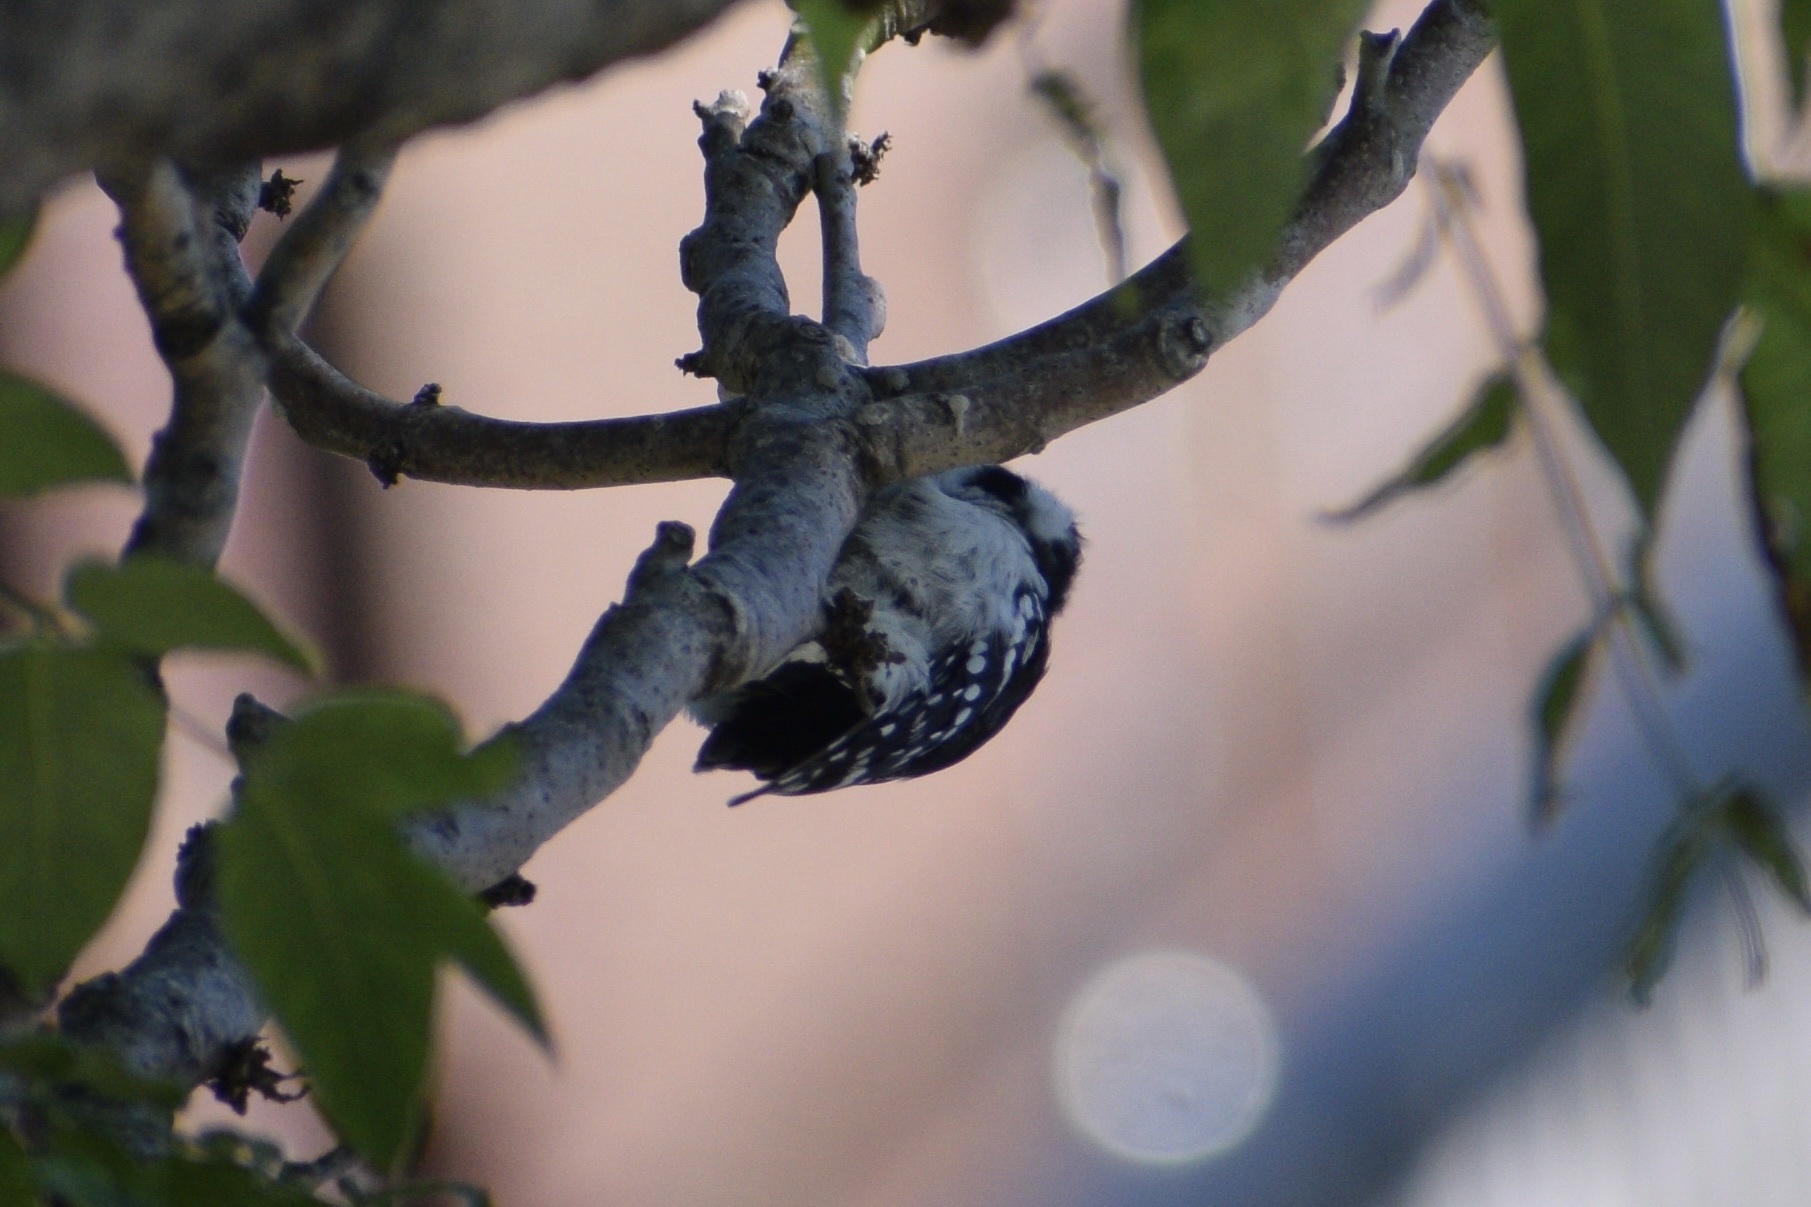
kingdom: Animalia
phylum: Chordata
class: Aves
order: Piciformes
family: Picidae
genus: Dryobates
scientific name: Dryobates pubescens
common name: Downy woodpecker
